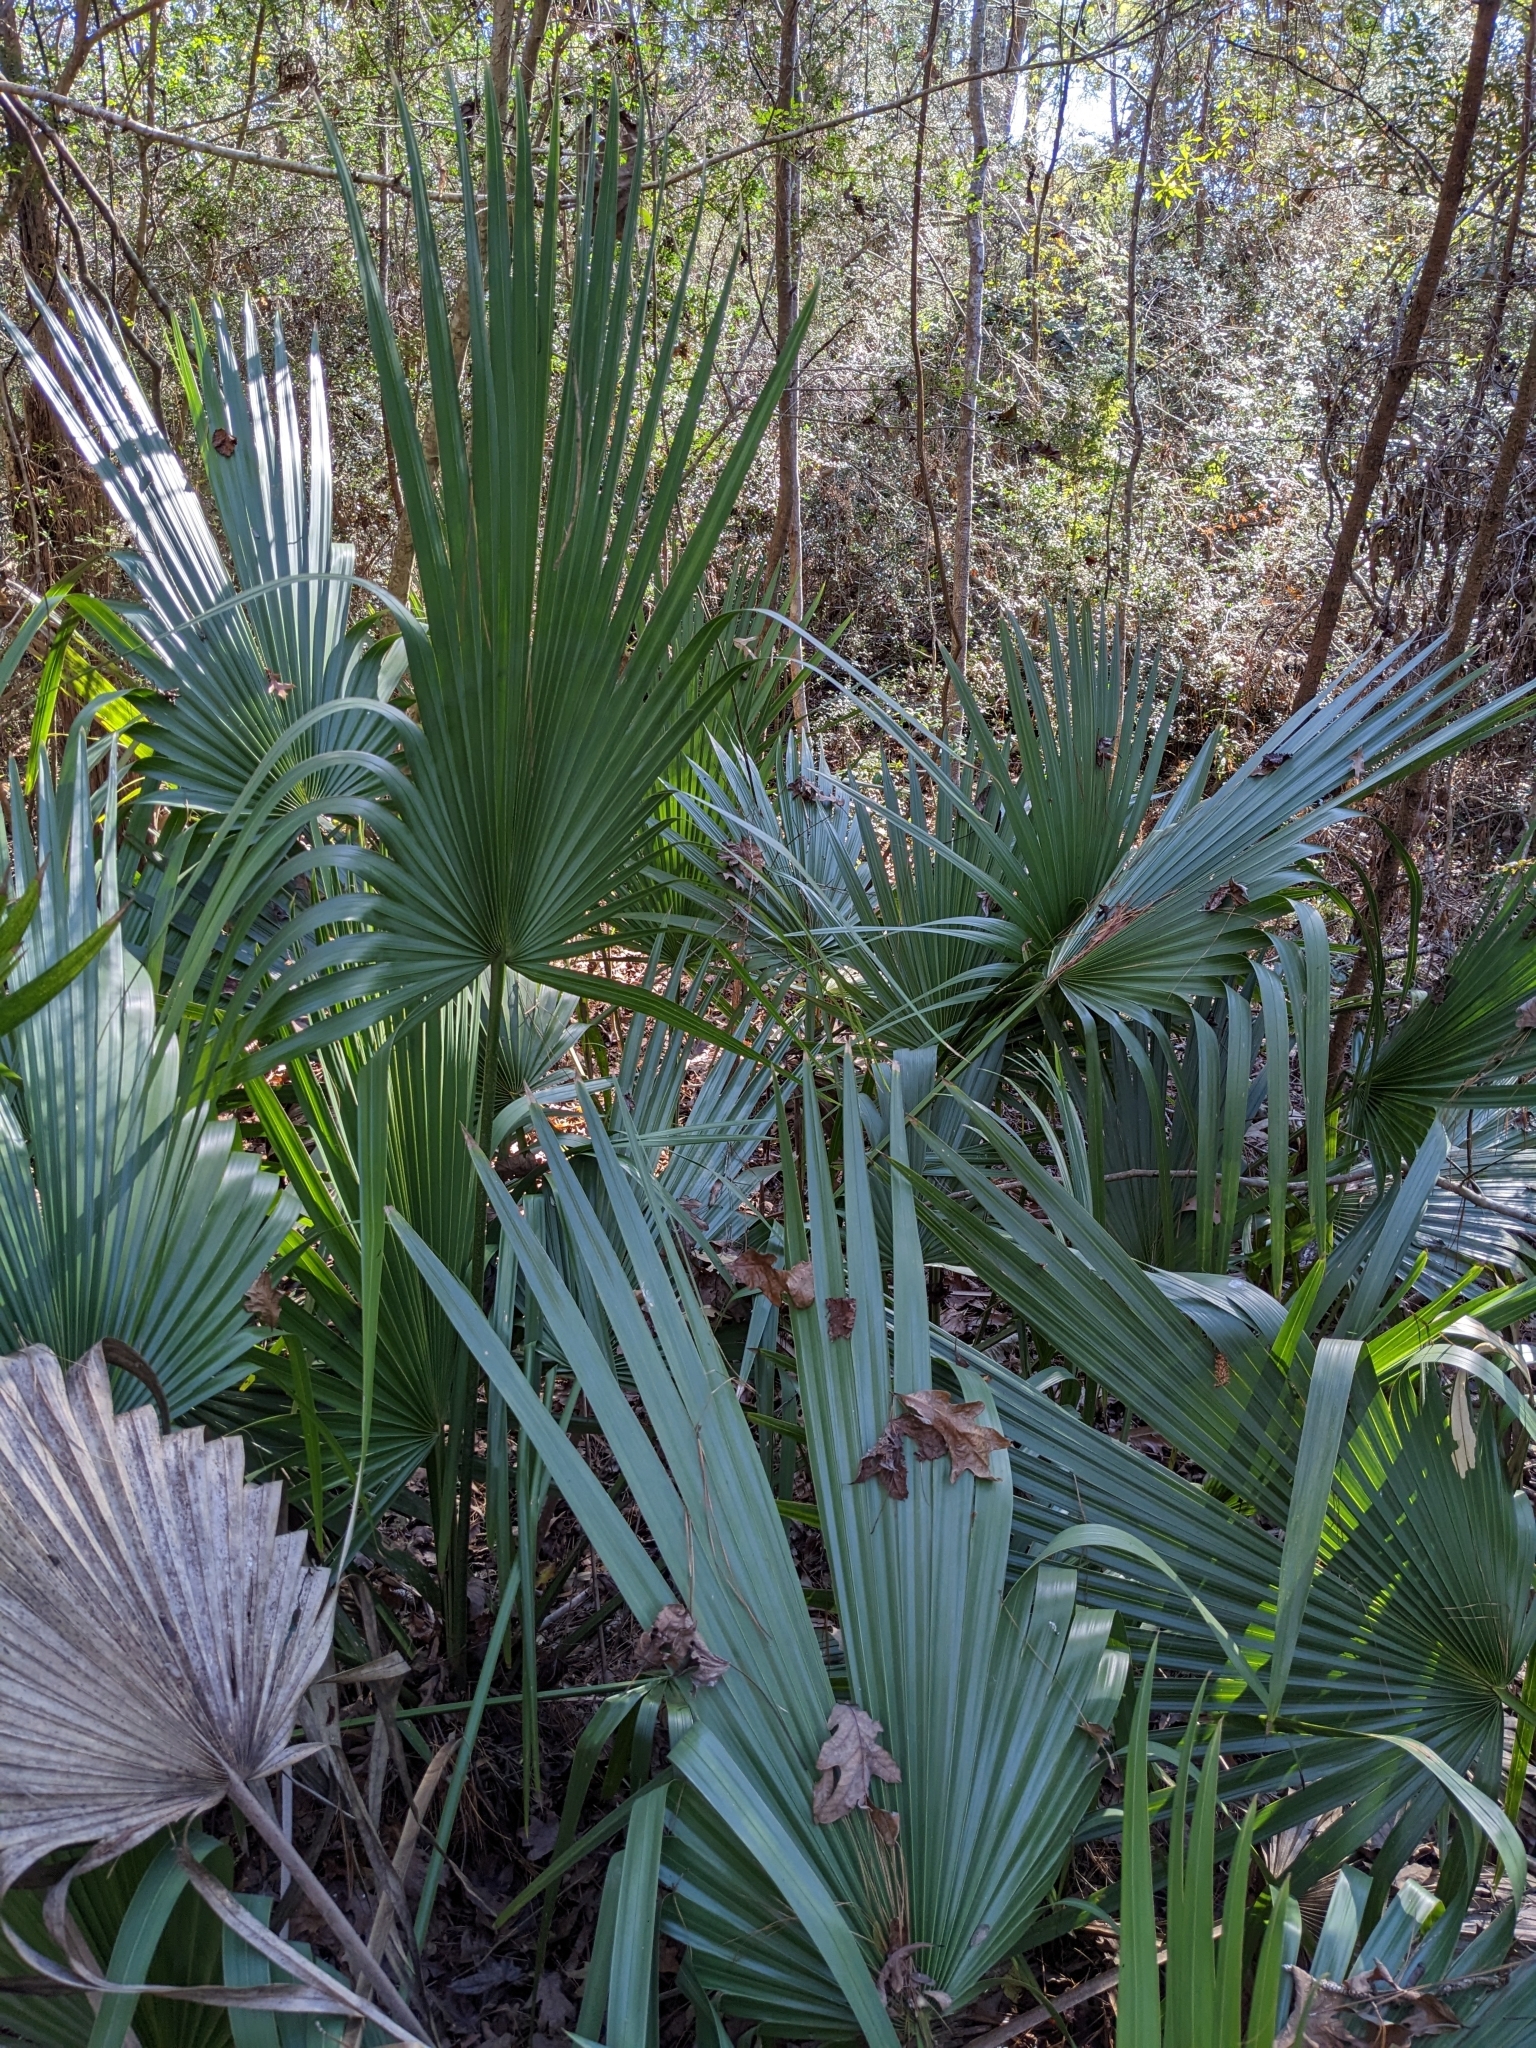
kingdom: Plantae
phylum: Tracheophyta
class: Liliopsida
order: Arecales
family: Arecaceae
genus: Sabal
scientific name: Sabal minor
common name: Dwarf palmetto
